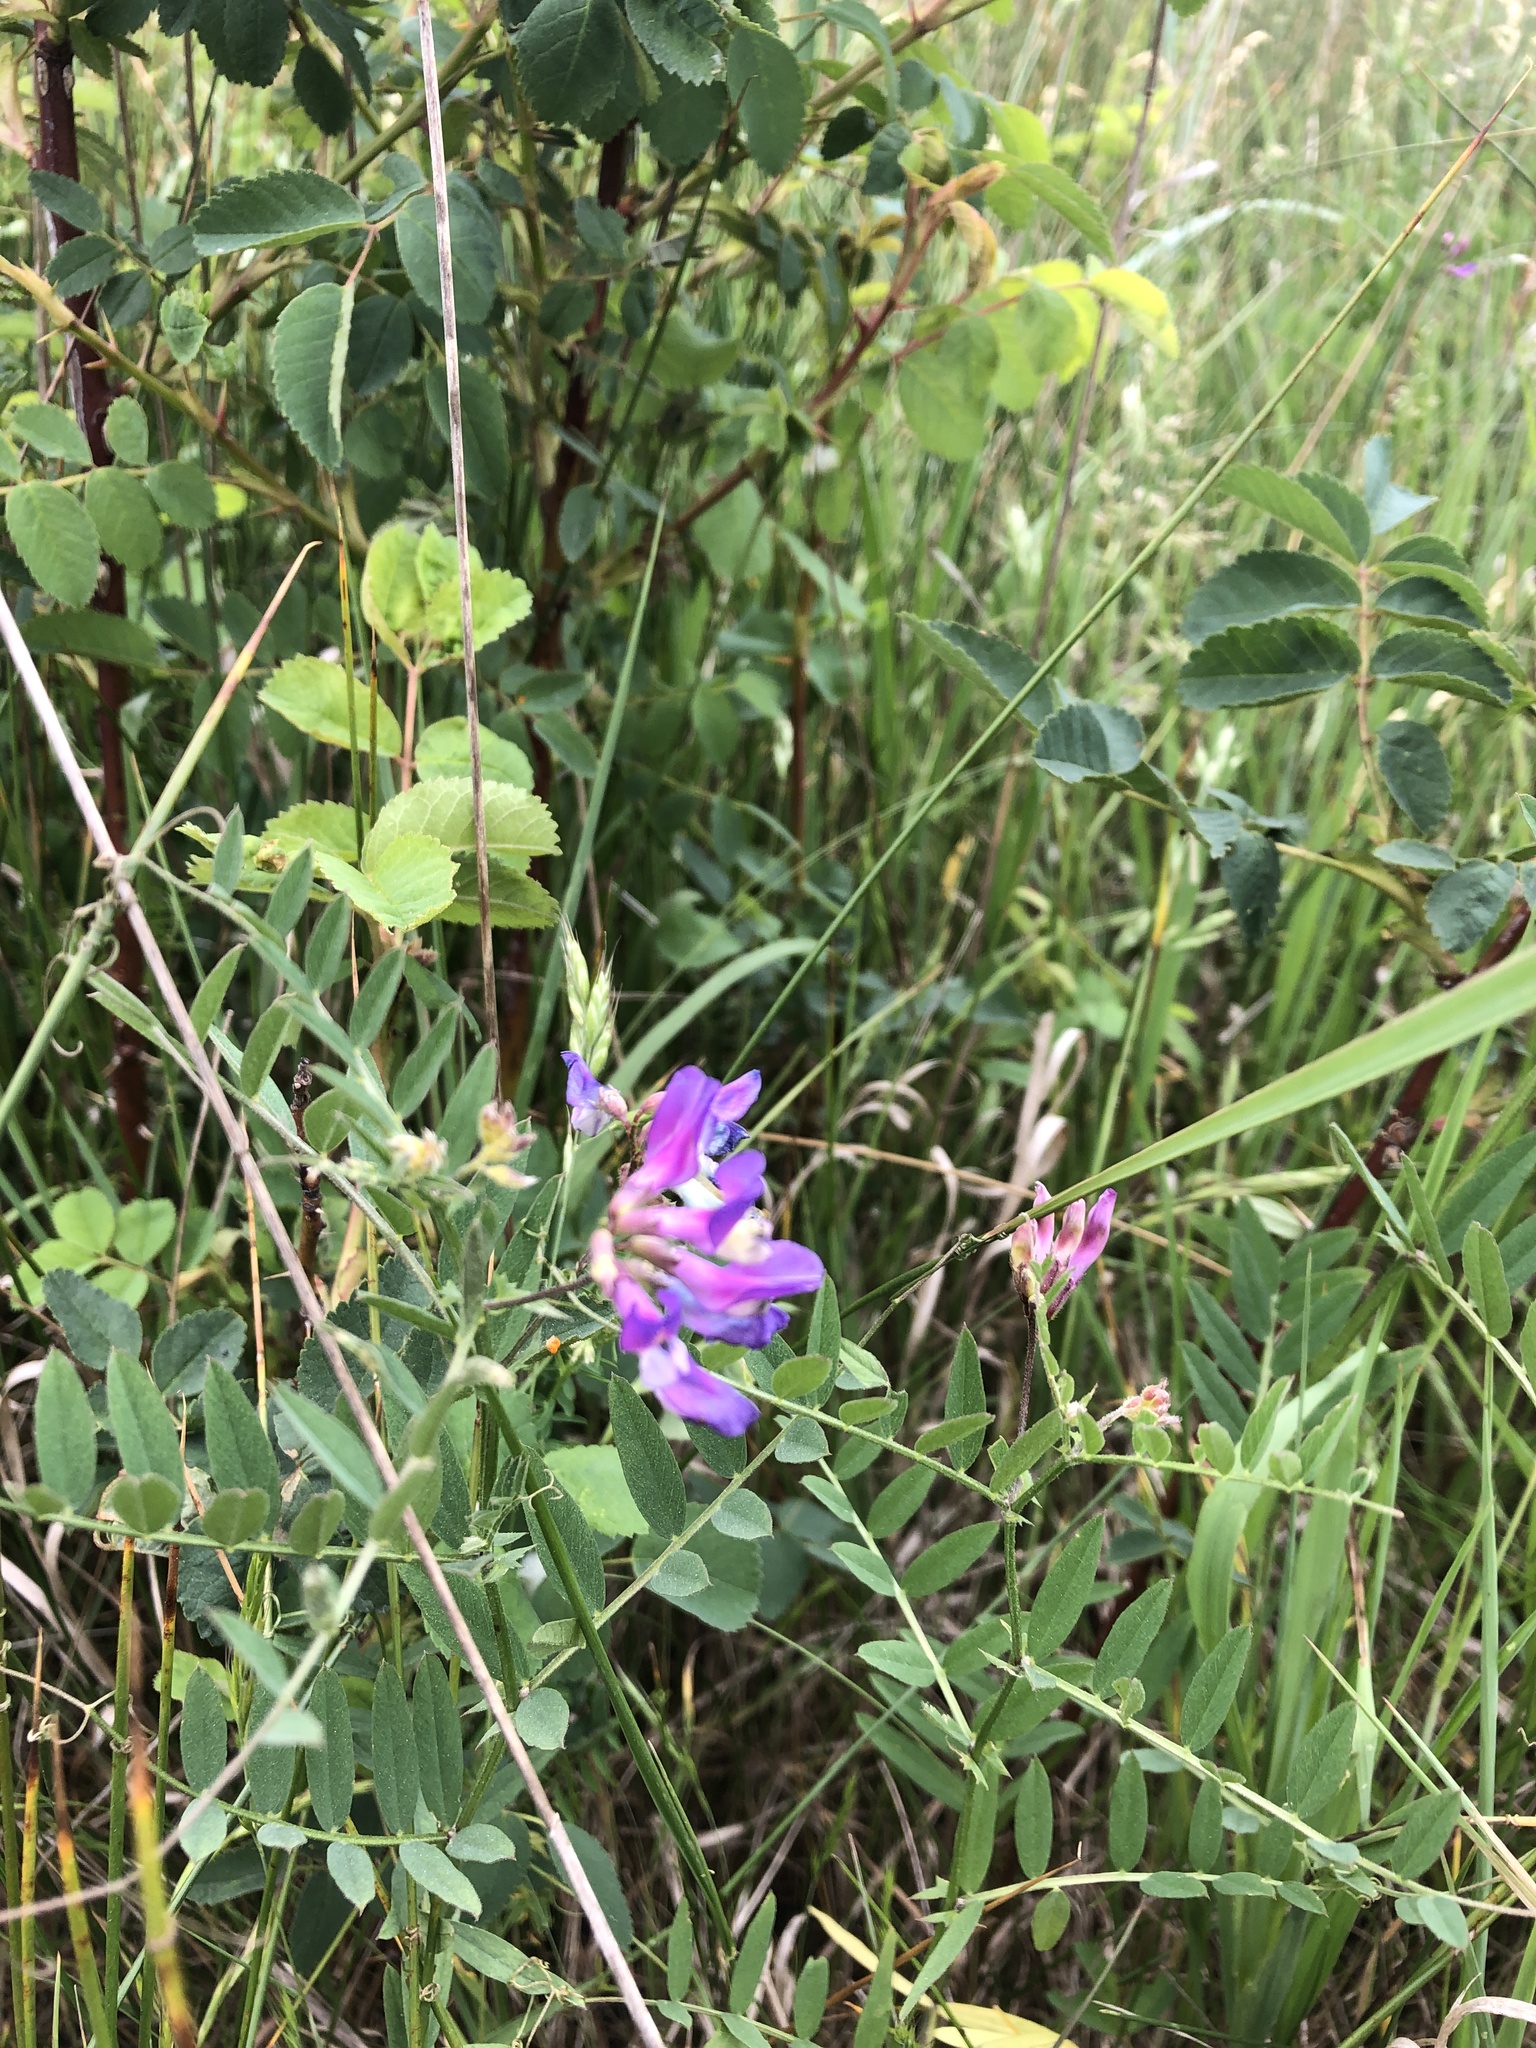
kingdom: Plantae
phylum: Tracheophyta
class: Magnoliopsida
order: Fabales
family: Fabaceae
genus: Vicia
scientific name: Vicia americana
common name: American vetch
